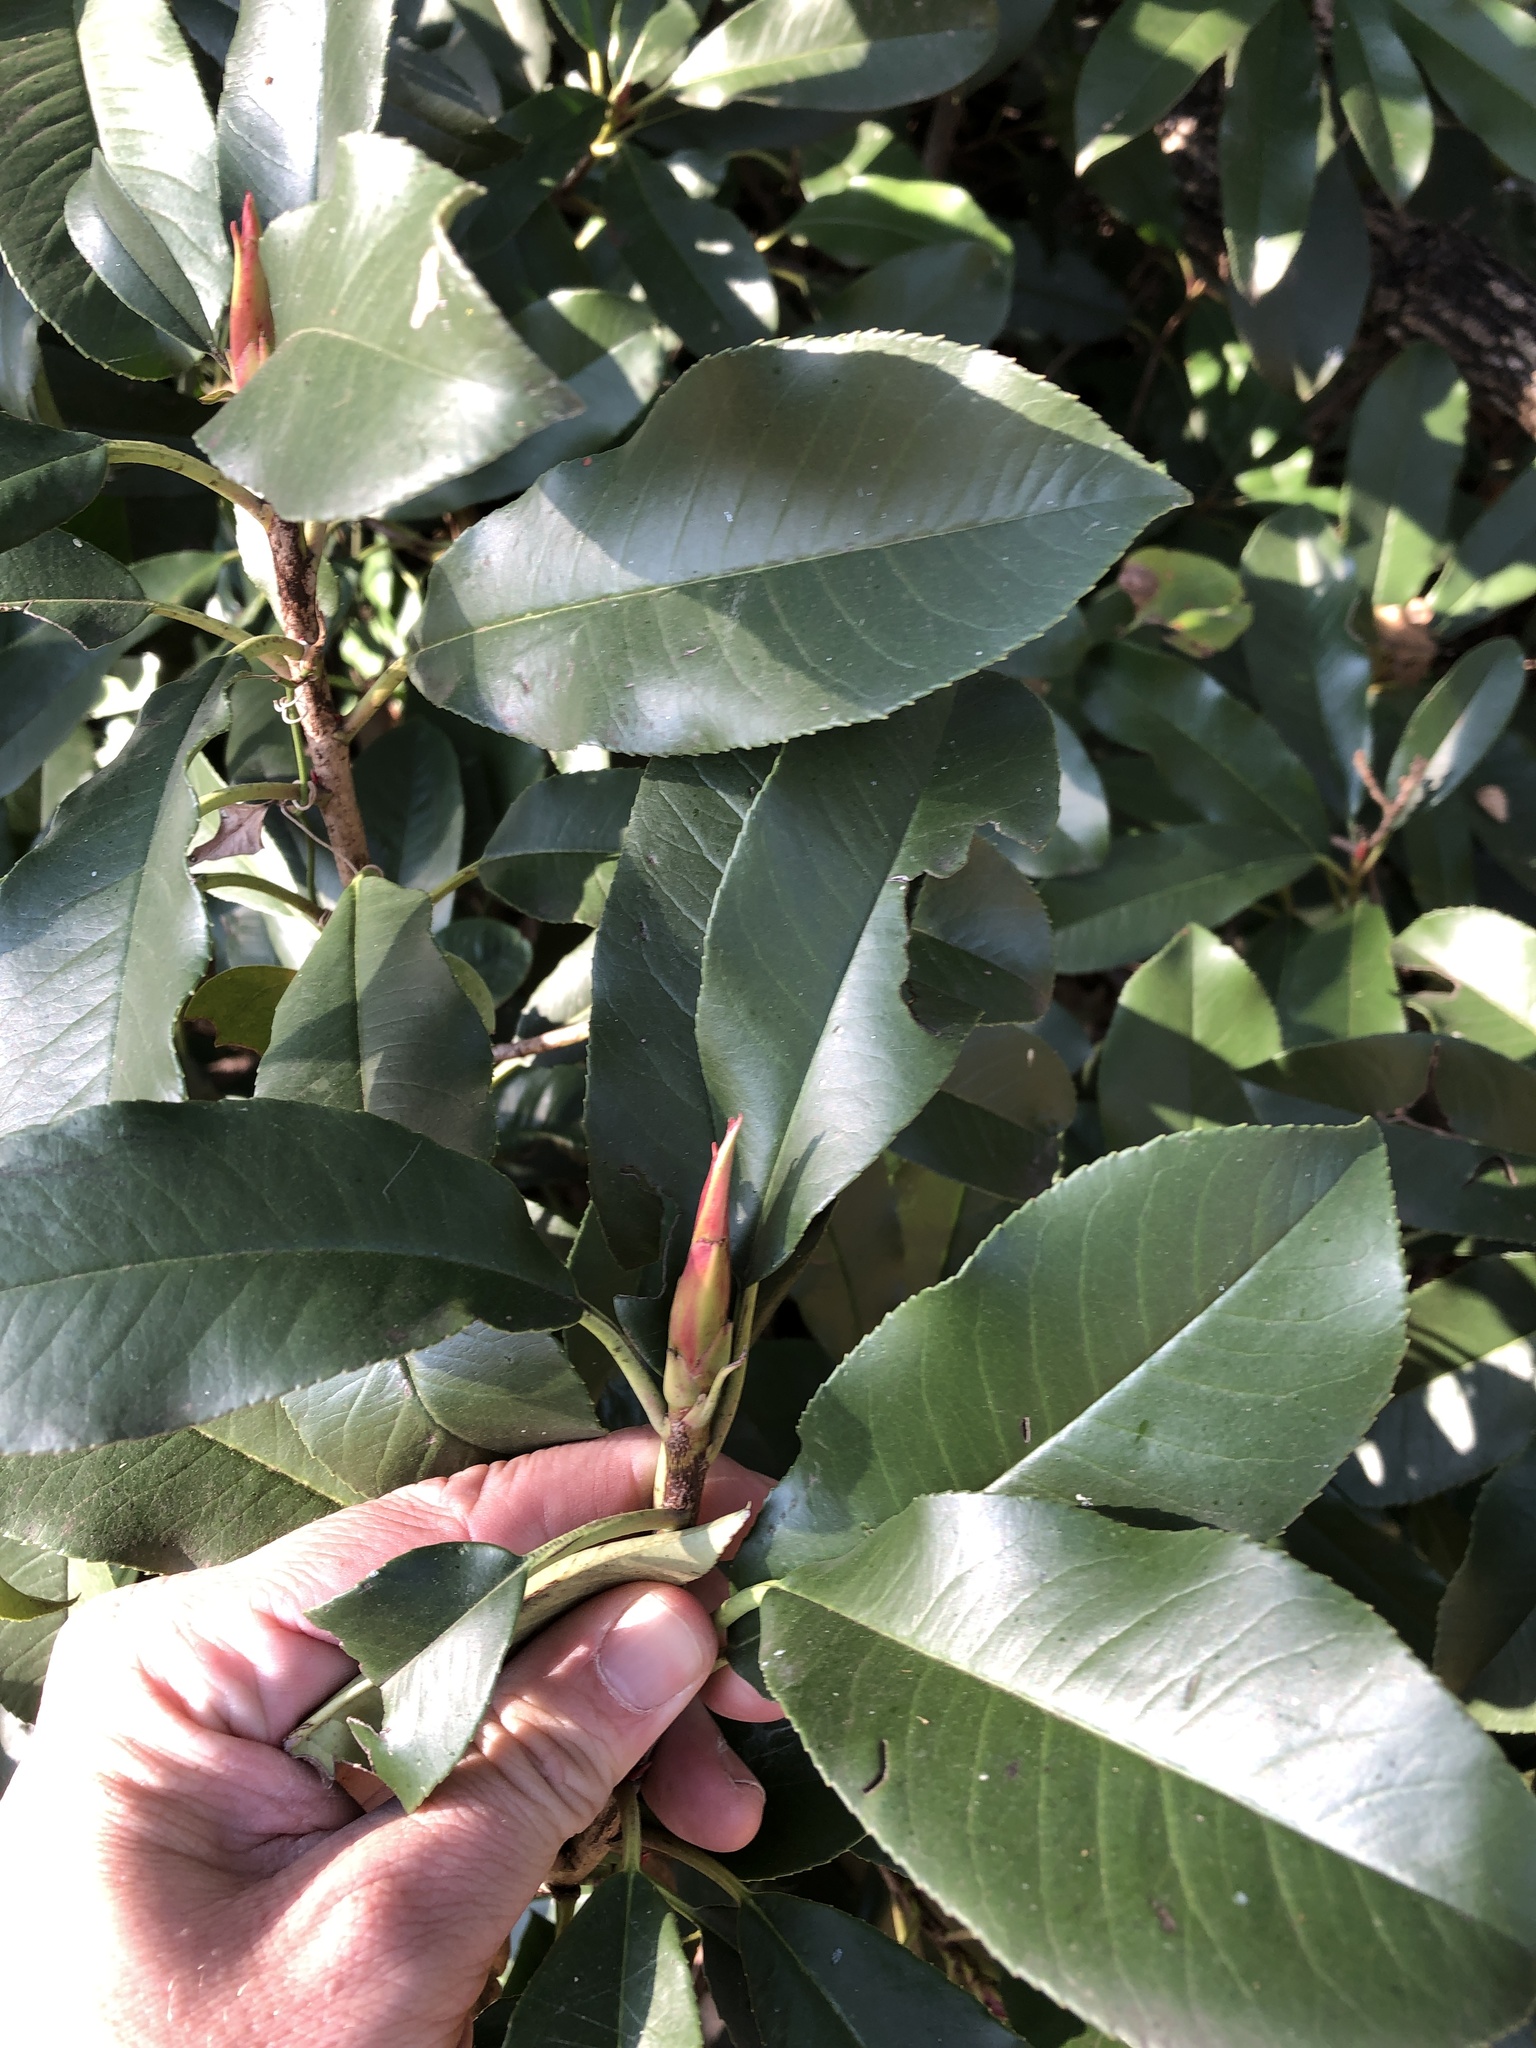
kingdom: Plantae
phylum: Tracheophyta
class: Magnoliopsida
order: Rosales
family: Rosaceae
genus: Photinia
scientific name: Photinia serratifolia
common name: Taiwanese photinia
